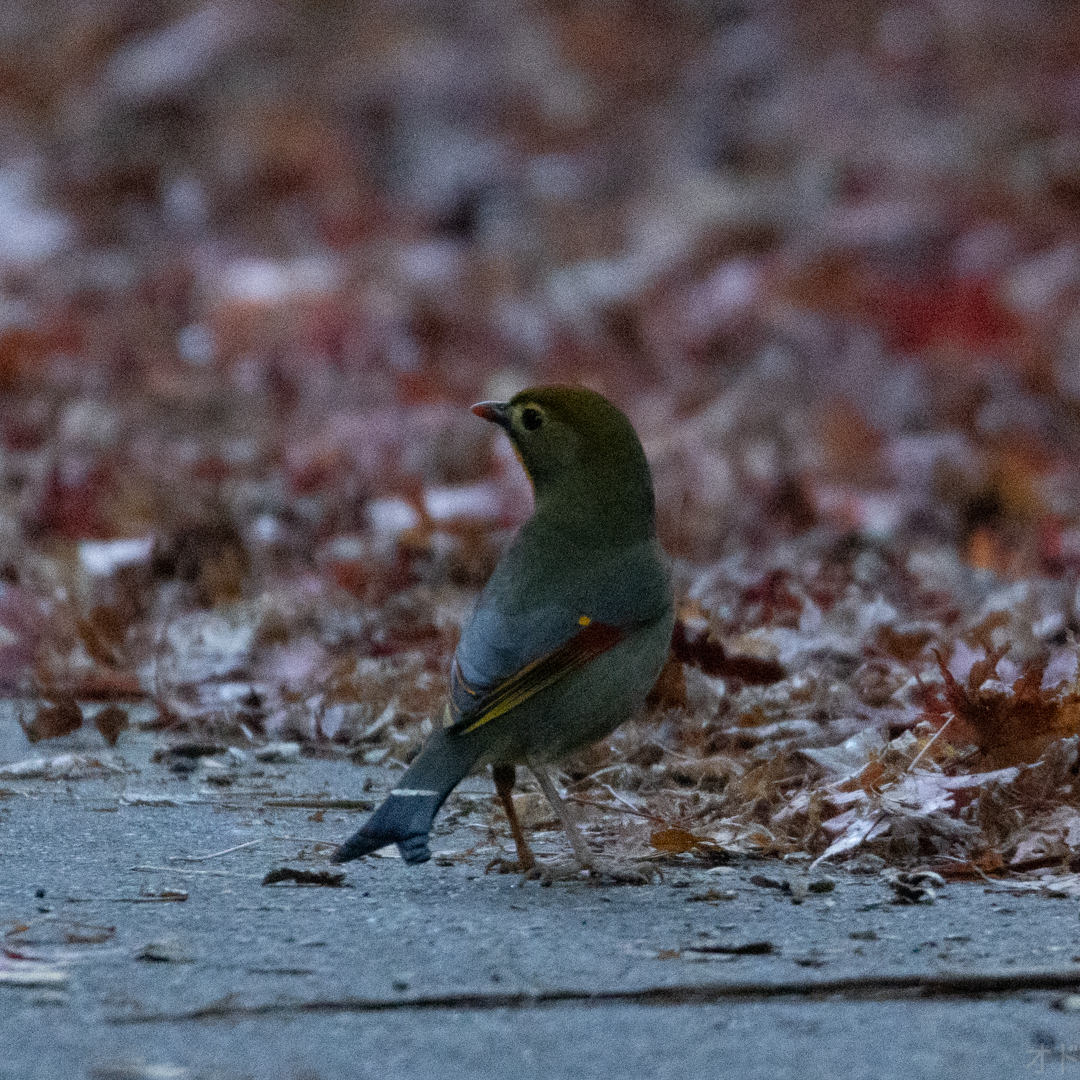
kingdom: Animalia
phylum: Chordata
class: Aves
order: Passeriformes
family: Leiothrichidae
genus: Leiothrix
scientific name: Leiothrix lutea
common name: Red-billed leiothrix
